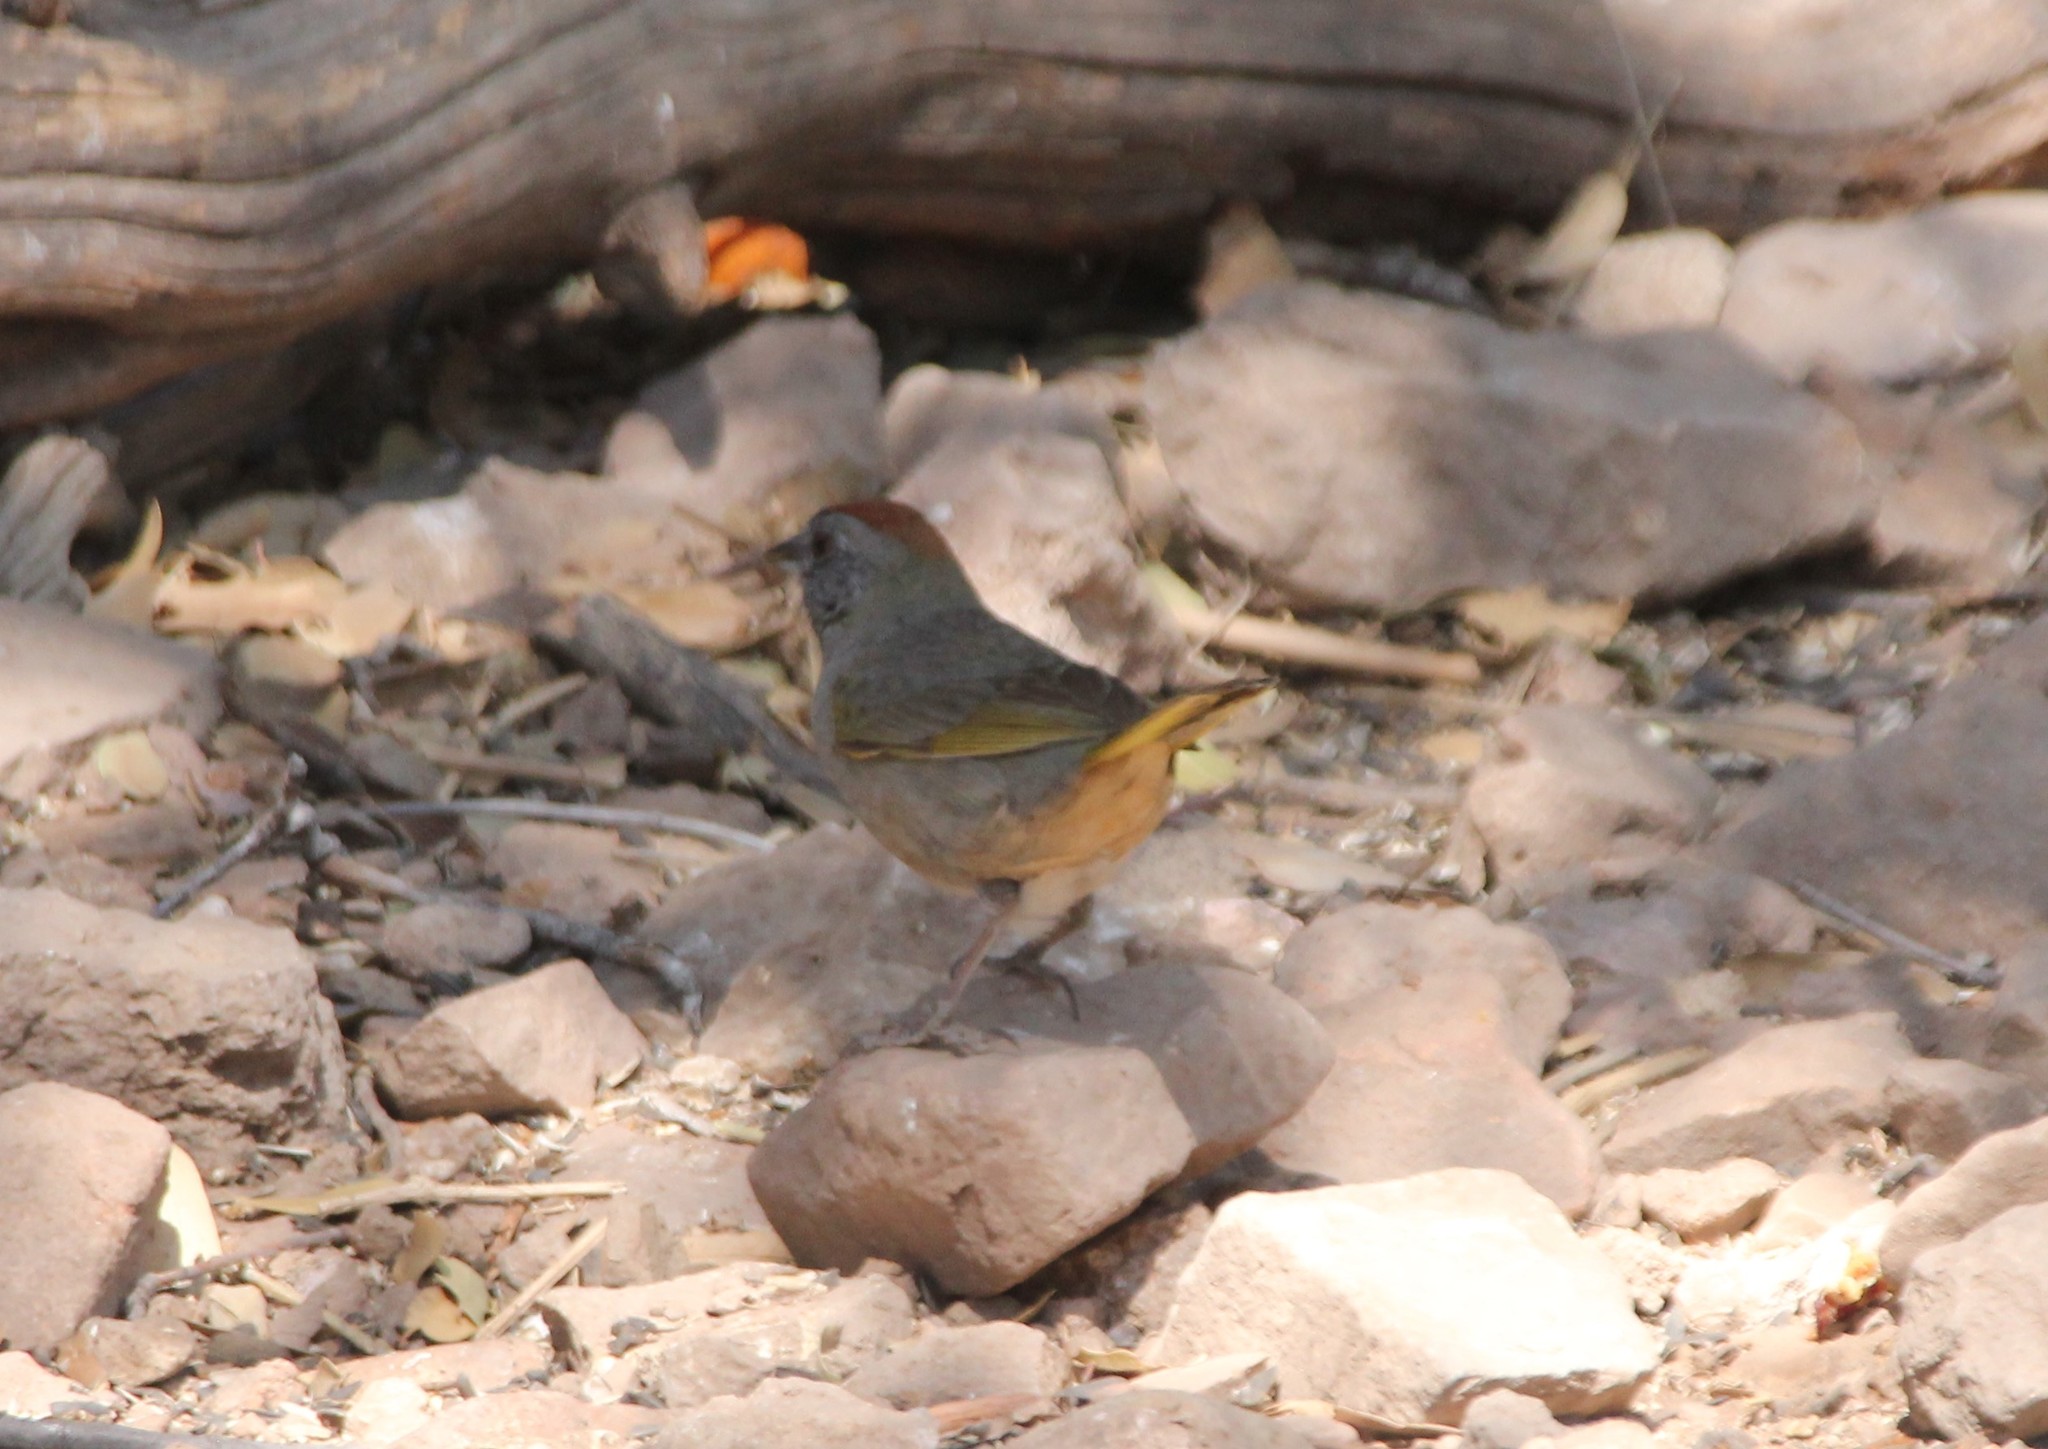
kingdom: Animalia
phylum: Chordata
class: Aves
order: Passeriformes
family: Passerellidae
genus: Pipilo
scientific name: Pipilo chlorurus
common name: Green-tailed towhee
